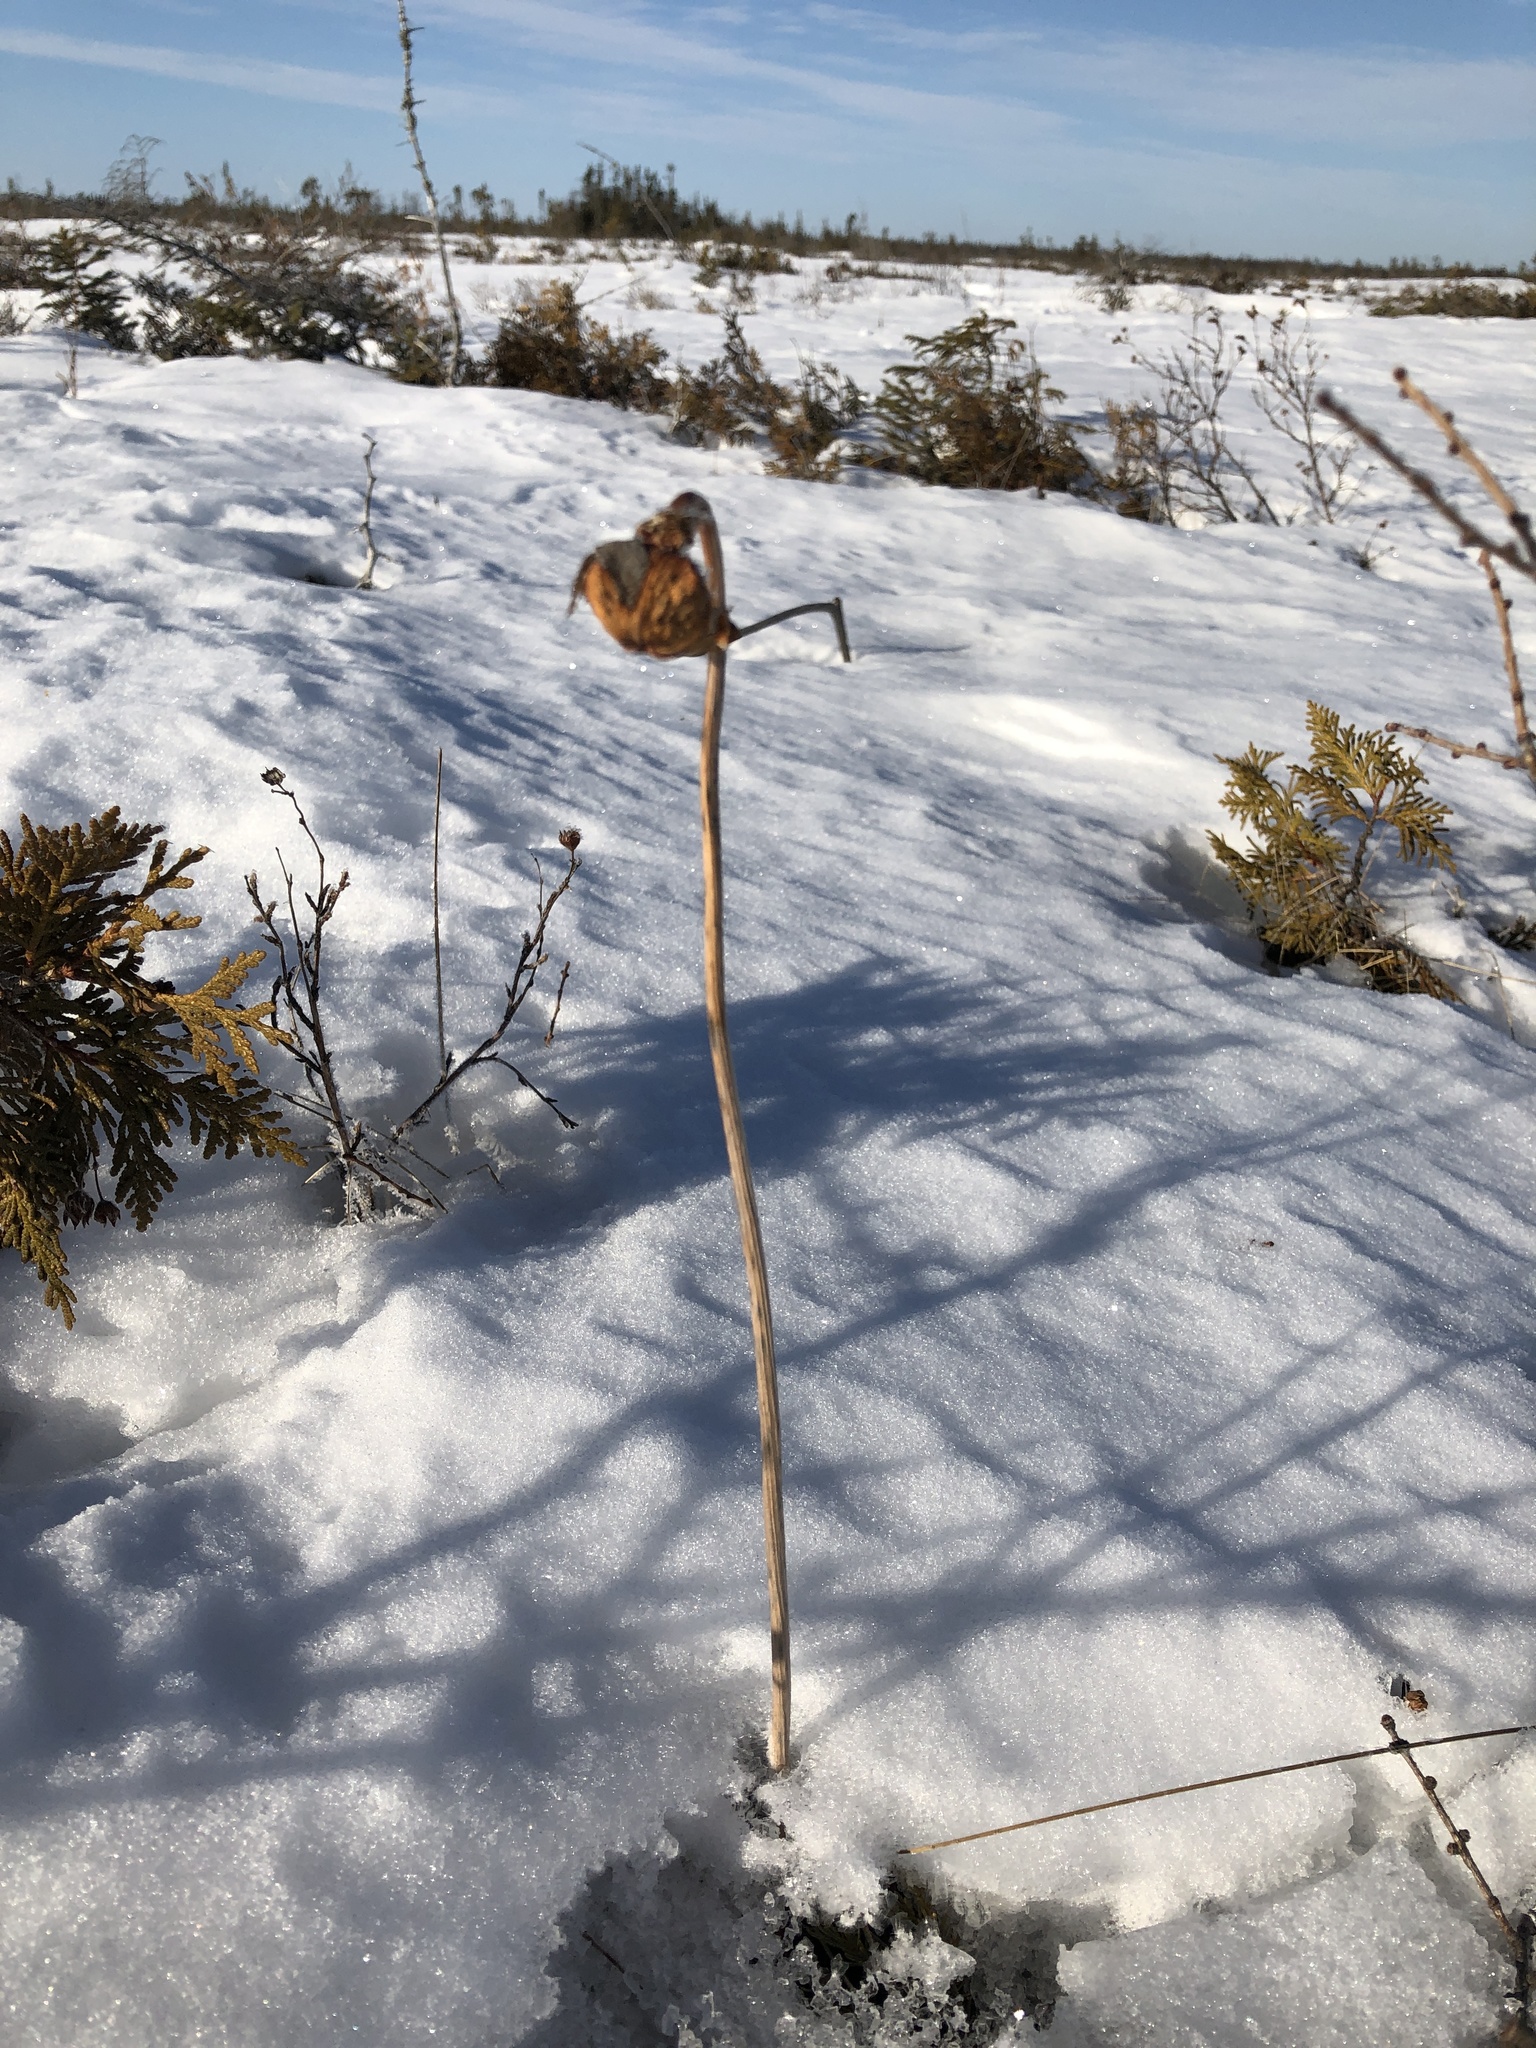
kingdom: Plantae
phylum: Tracheophyta
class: Magnoliopsida
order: Ericales
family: Sarraceniaceae
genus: Sarracenia
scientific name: Sarracenia purpurea
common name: Pitcherplant
